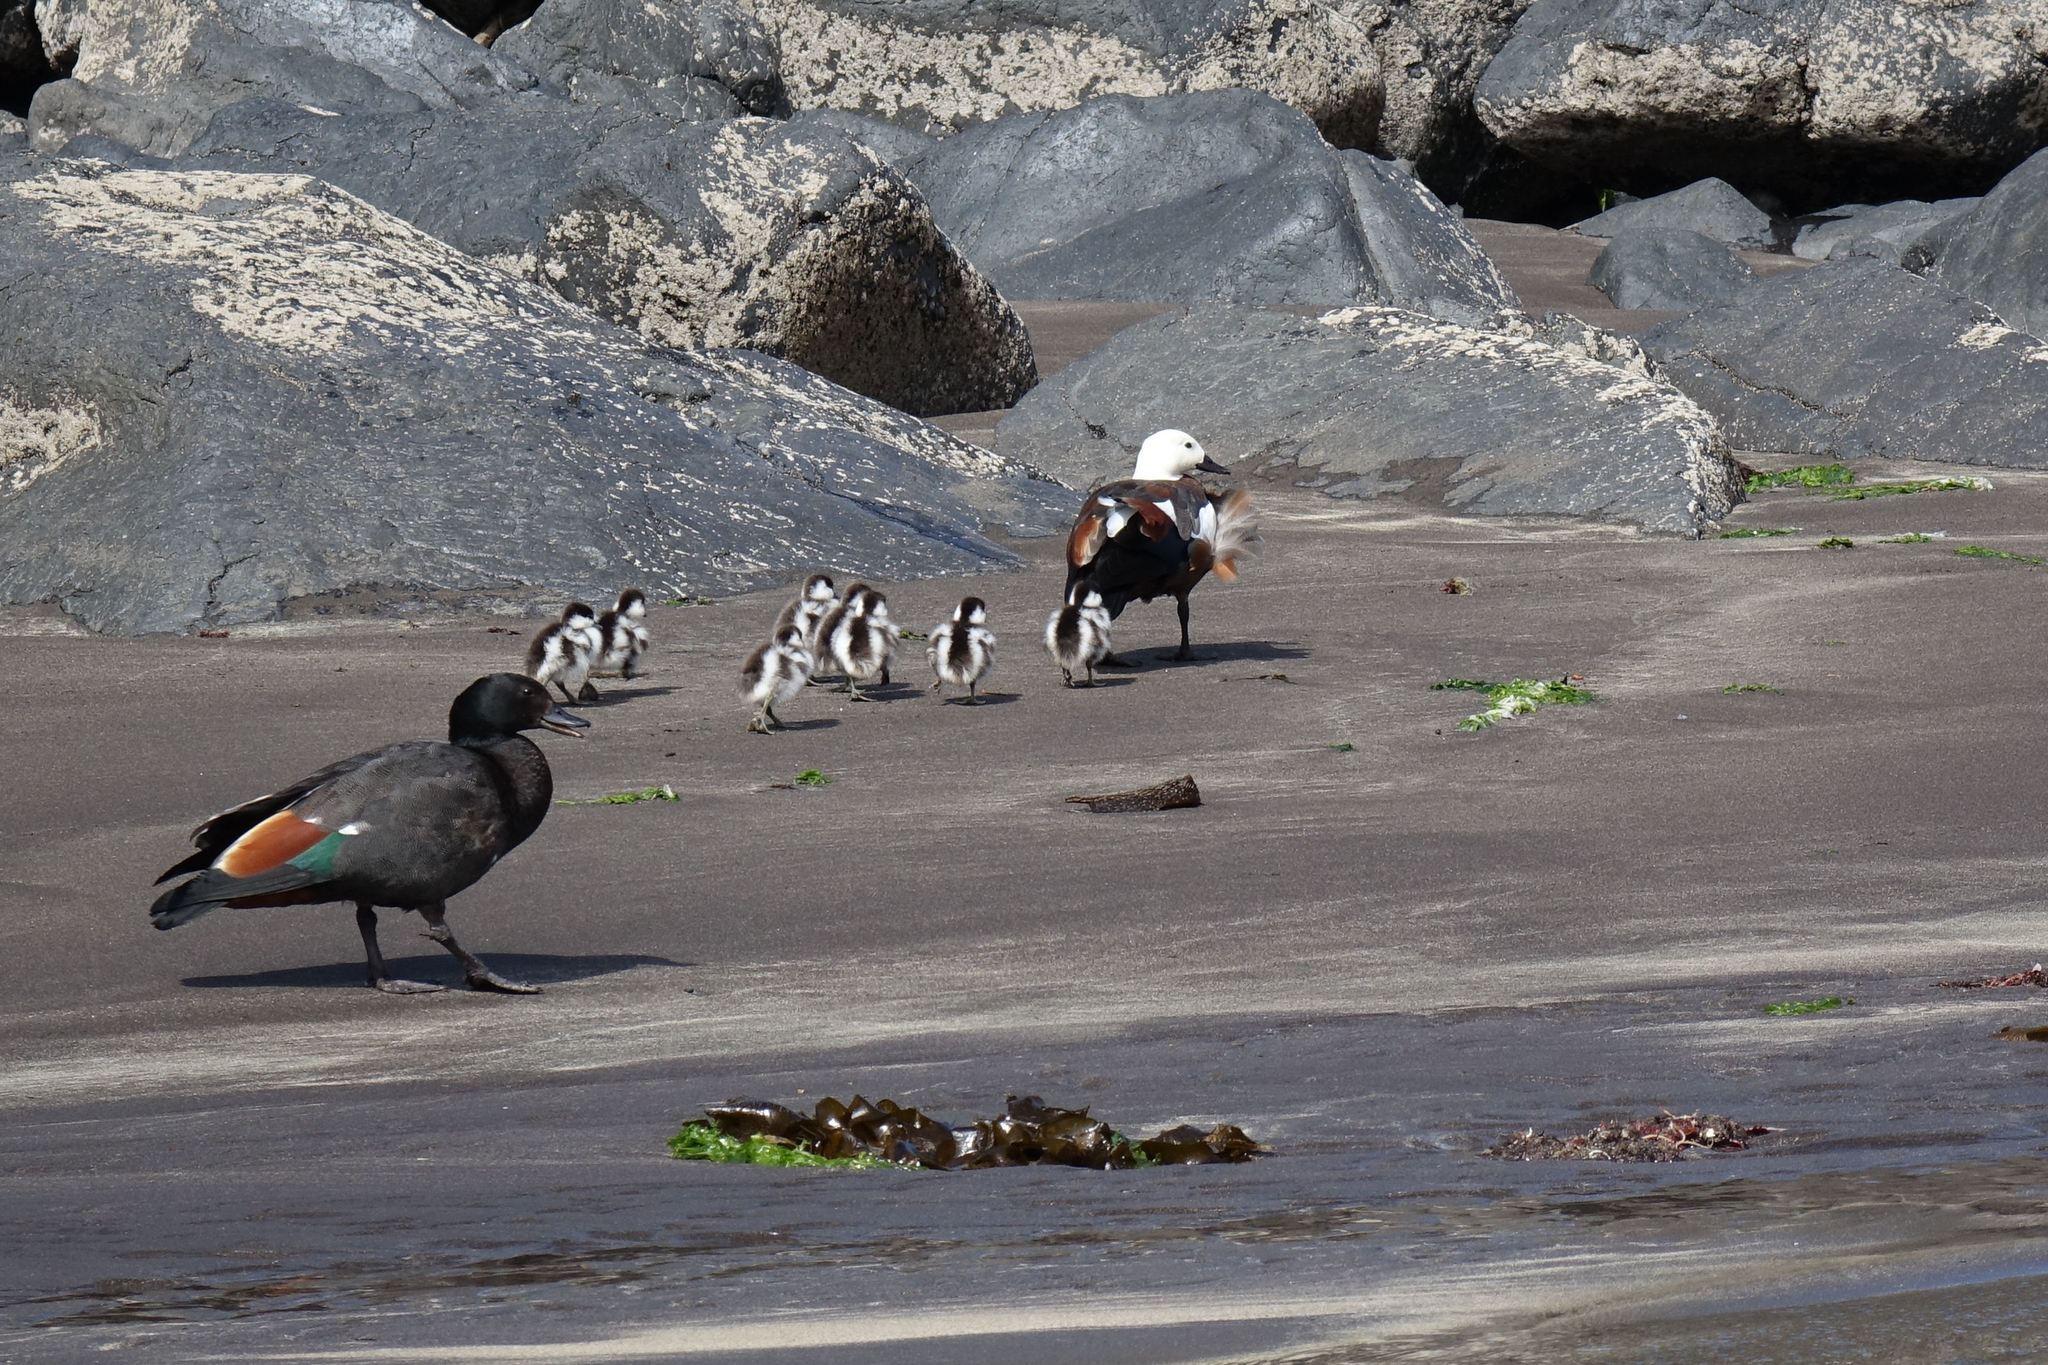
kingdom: Animalia
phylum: Chordata
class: Aves
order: Anseriformes
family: Anatidae
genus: Tadorna
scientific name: Tadorna variegata
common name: Paradise shelduck
